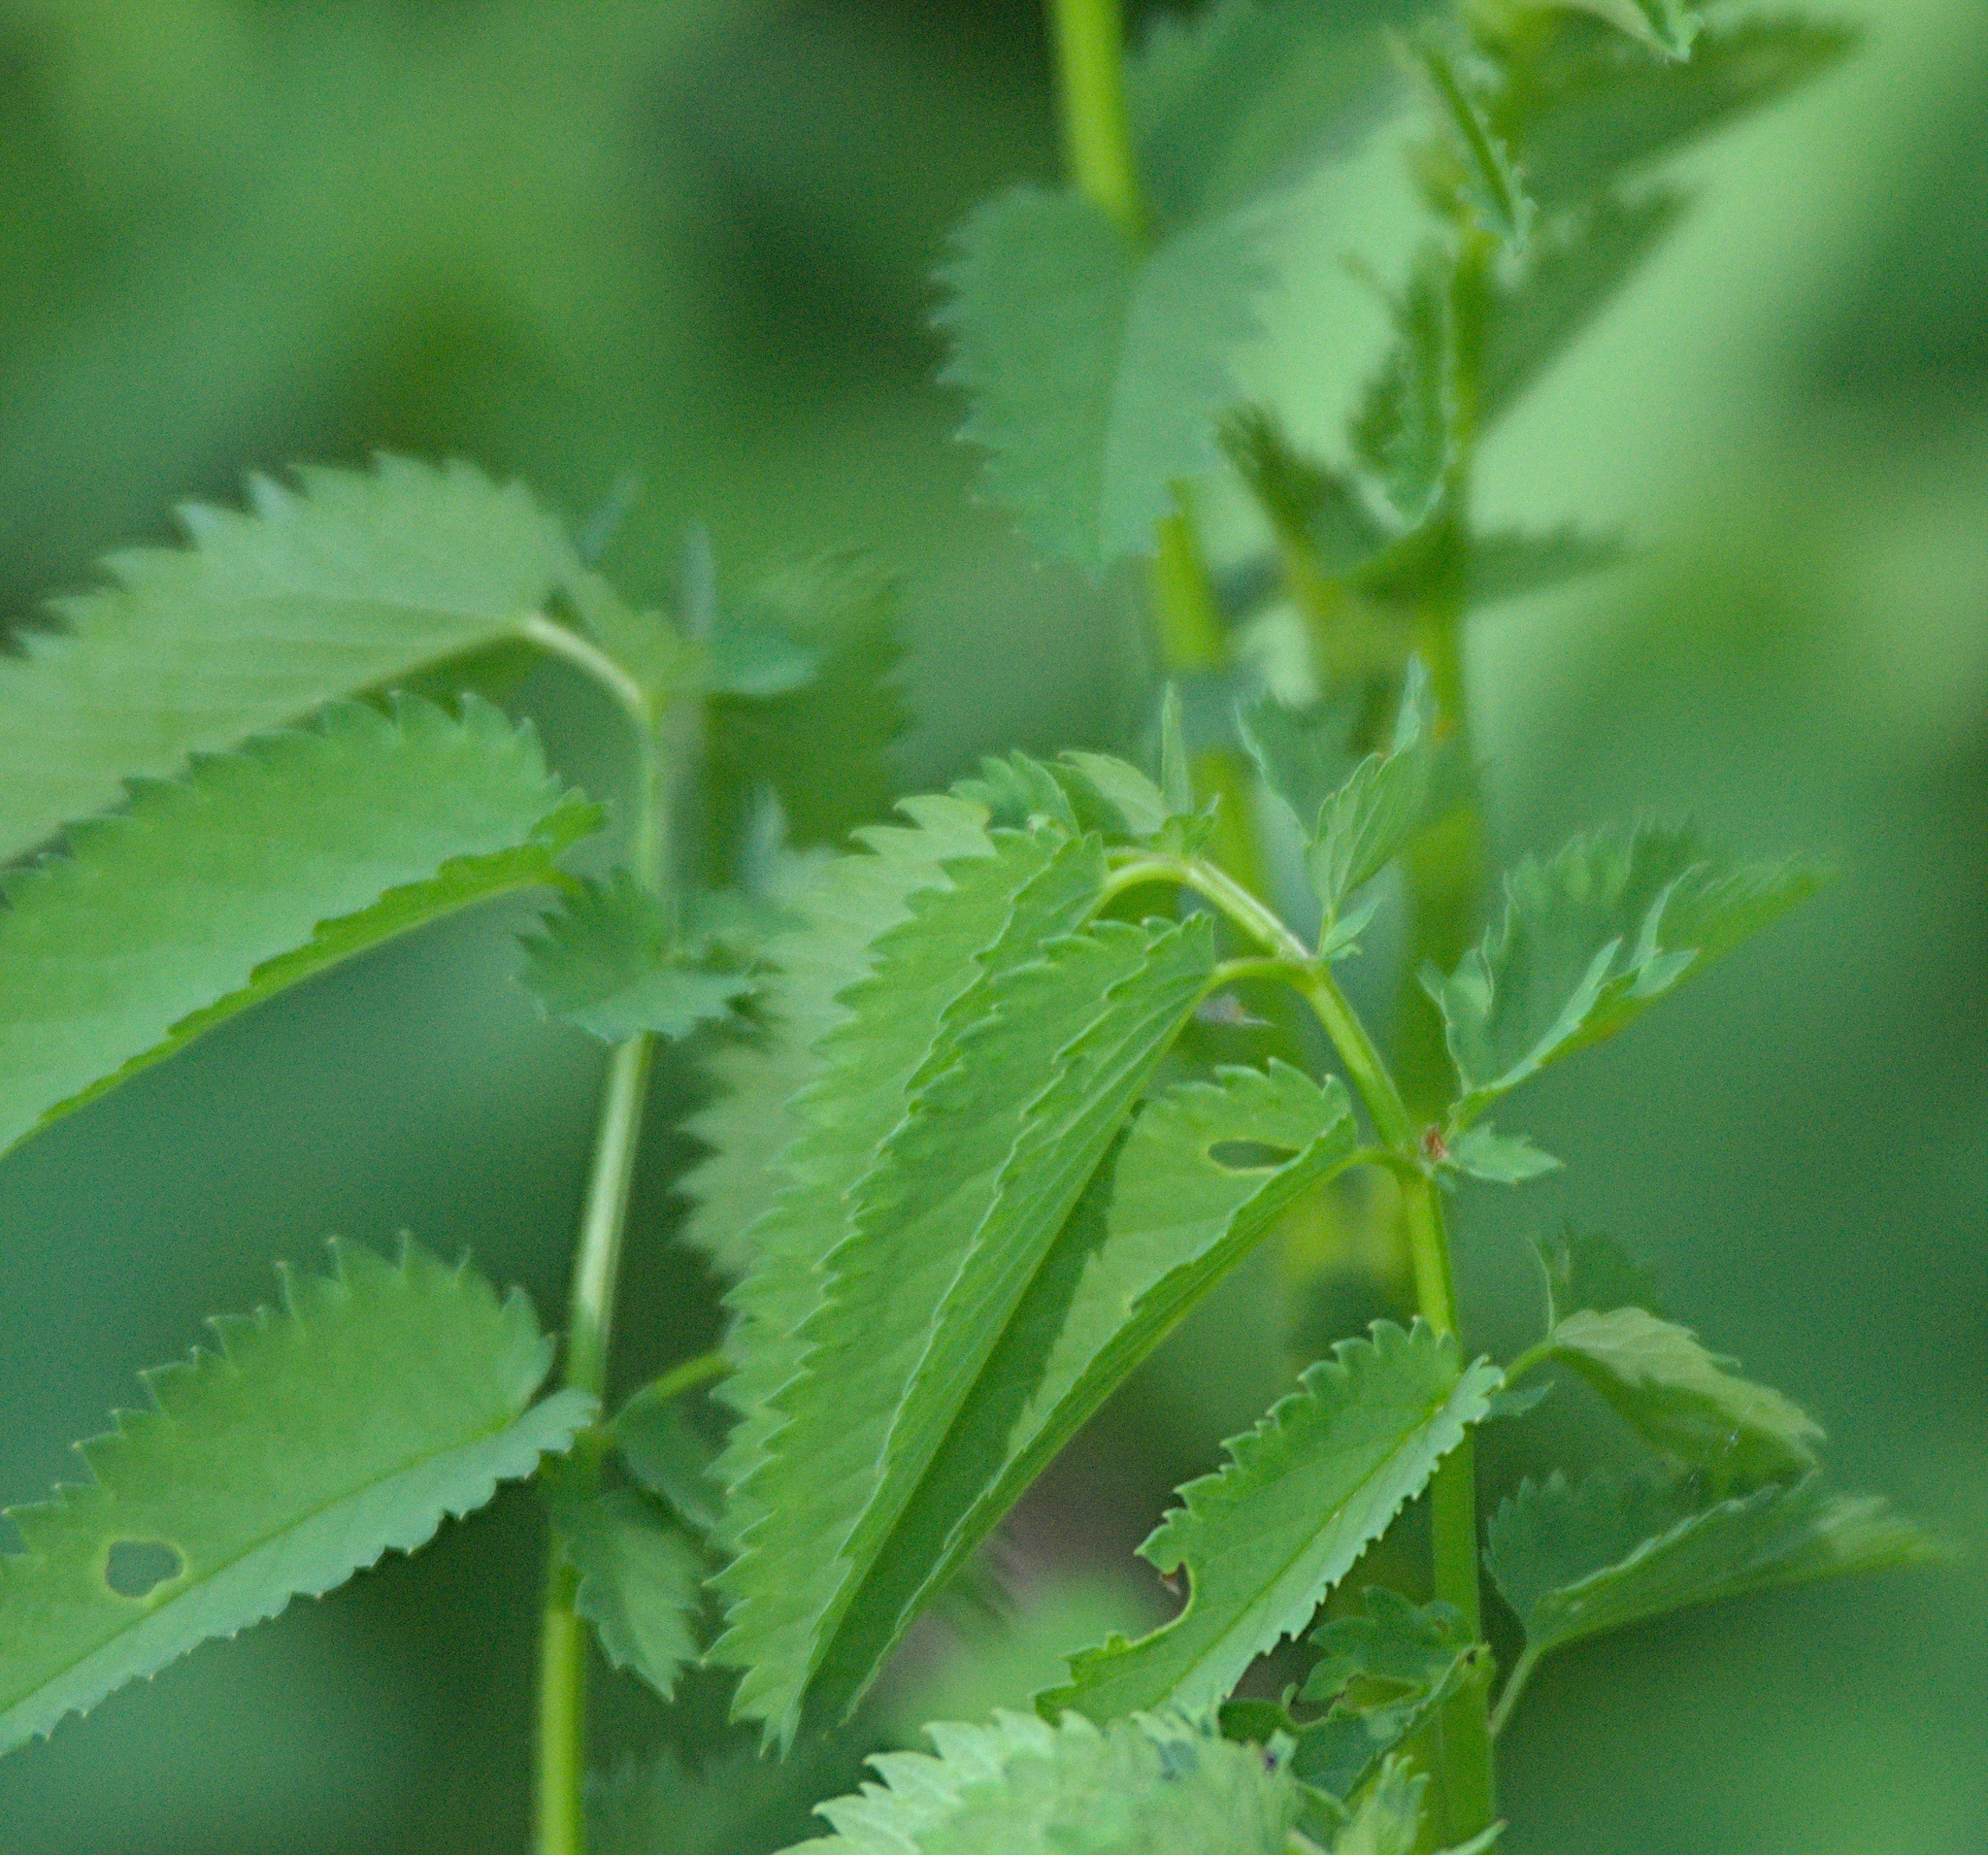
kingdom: Plantae
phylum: Tracheophyta
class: Magnoliopsida
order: Rosales
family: Rosaceae
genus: Sanguisorba
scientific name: Sanguisorba officinalis
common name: Great burnet
